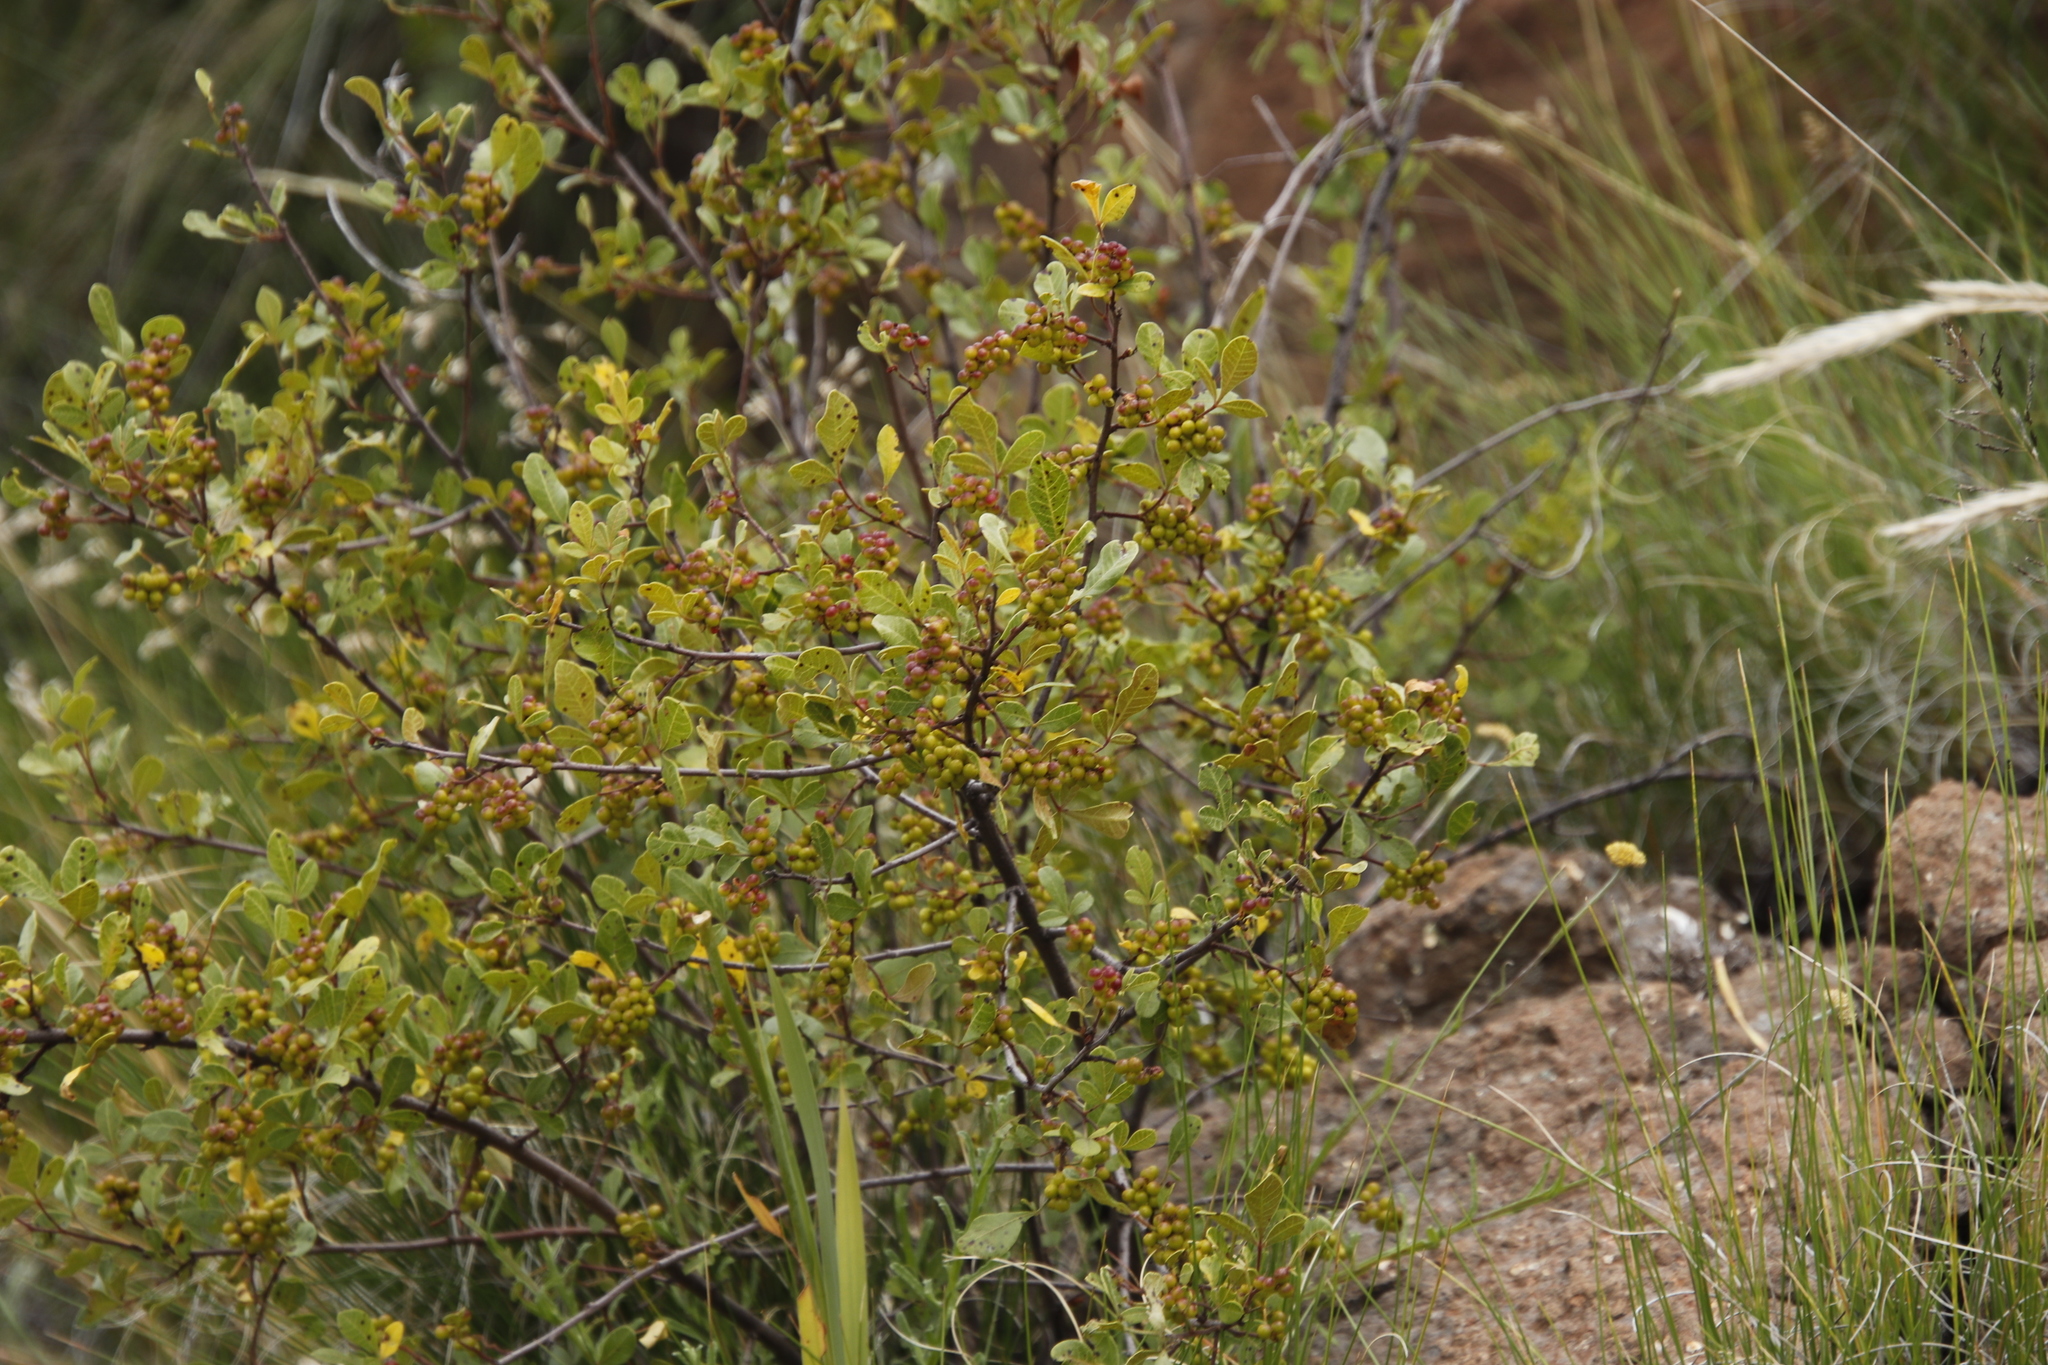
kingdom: Plantae
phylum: Tracheophyta
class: Magnoliopsida
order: Sapindales
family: Anacardiaceae
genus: Searsia
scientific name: Searsia divaricata
